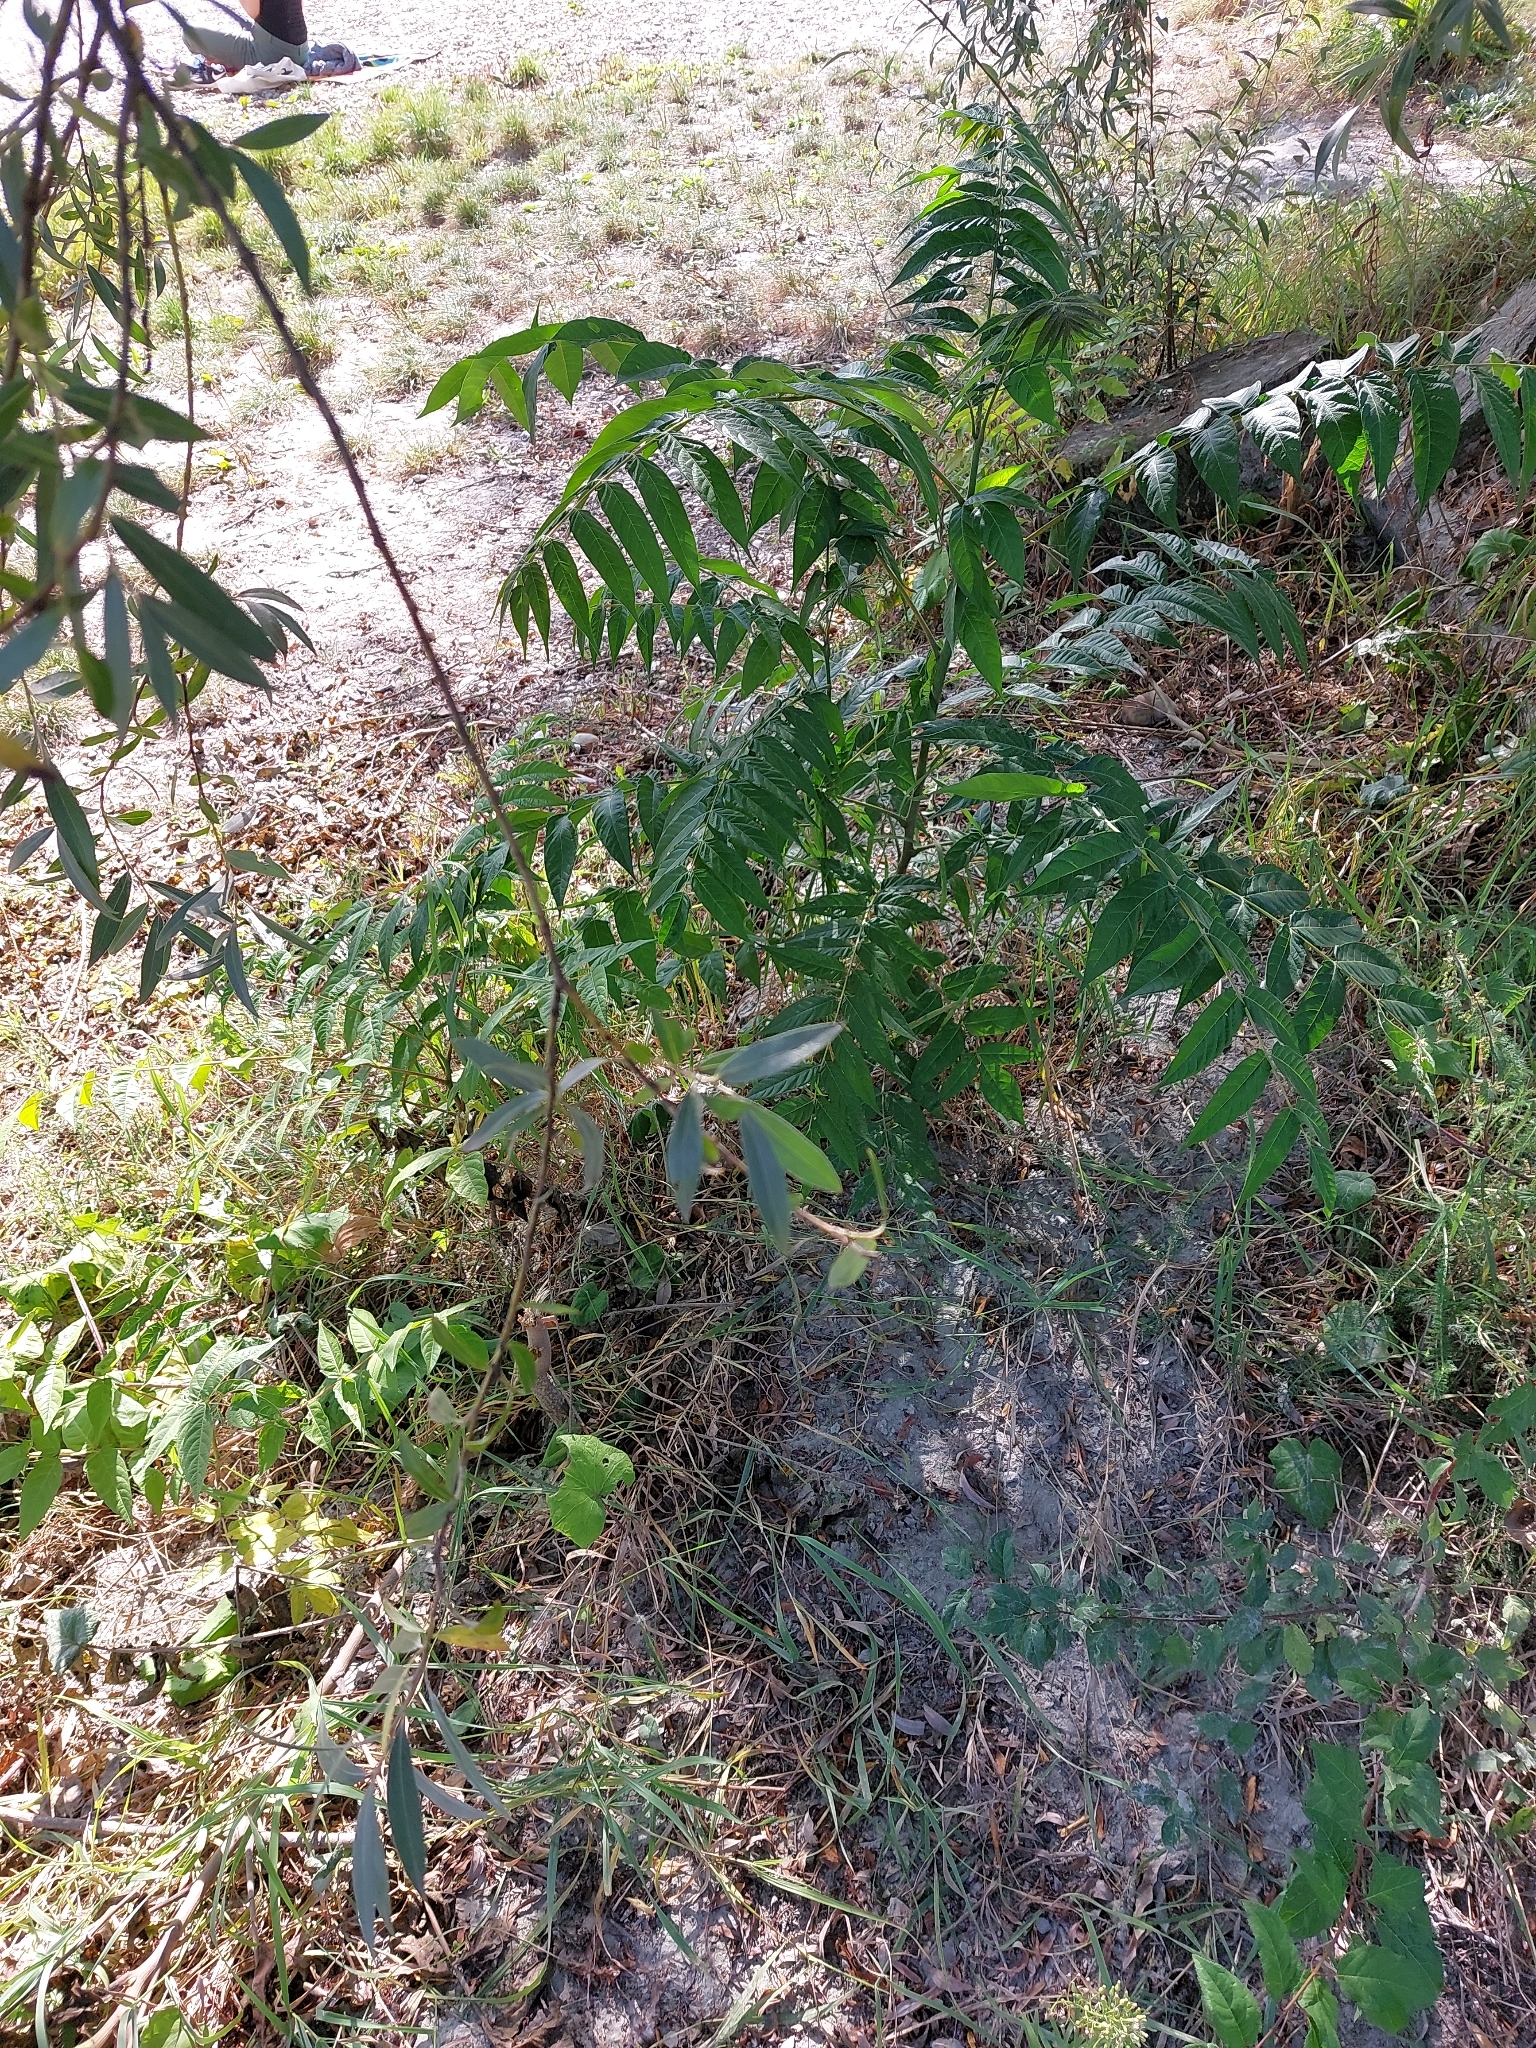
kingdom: Plantae
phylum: Tracheophyta
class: Magnoliopsida
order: Sapindales
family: Simaroubaceae
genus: Ailanthus
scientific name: Ailanthus altissima
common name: Tree-of-heaven
